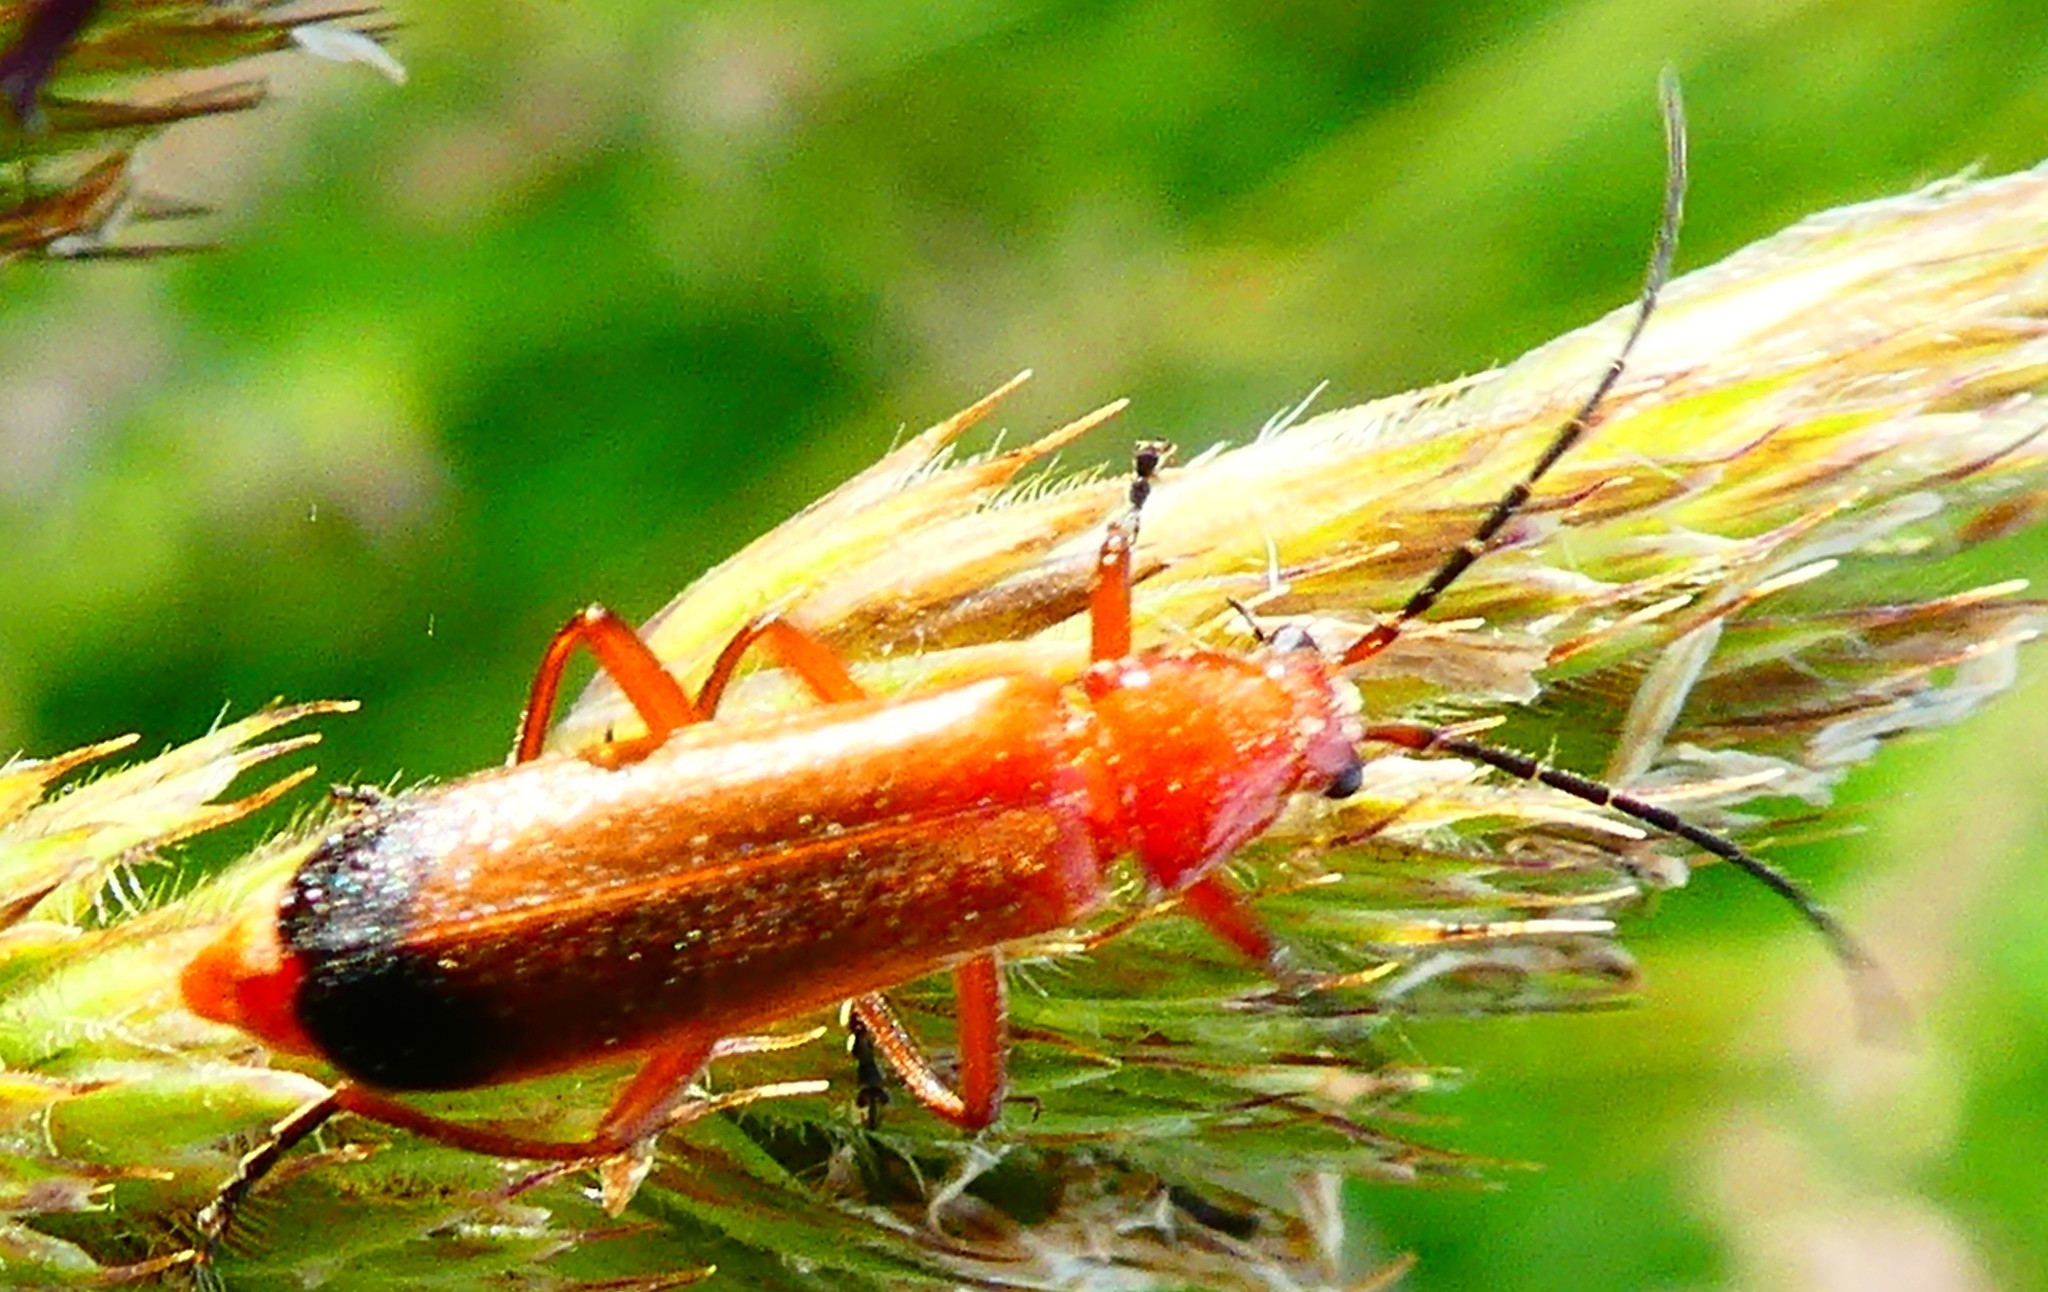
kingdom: Animalia
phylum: Arthropoda
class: Insecta
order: Coleoptera
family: Cantharidae
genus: Rhagonycha
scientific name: Rhagonycha fulva
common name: Common red soldier beetle
